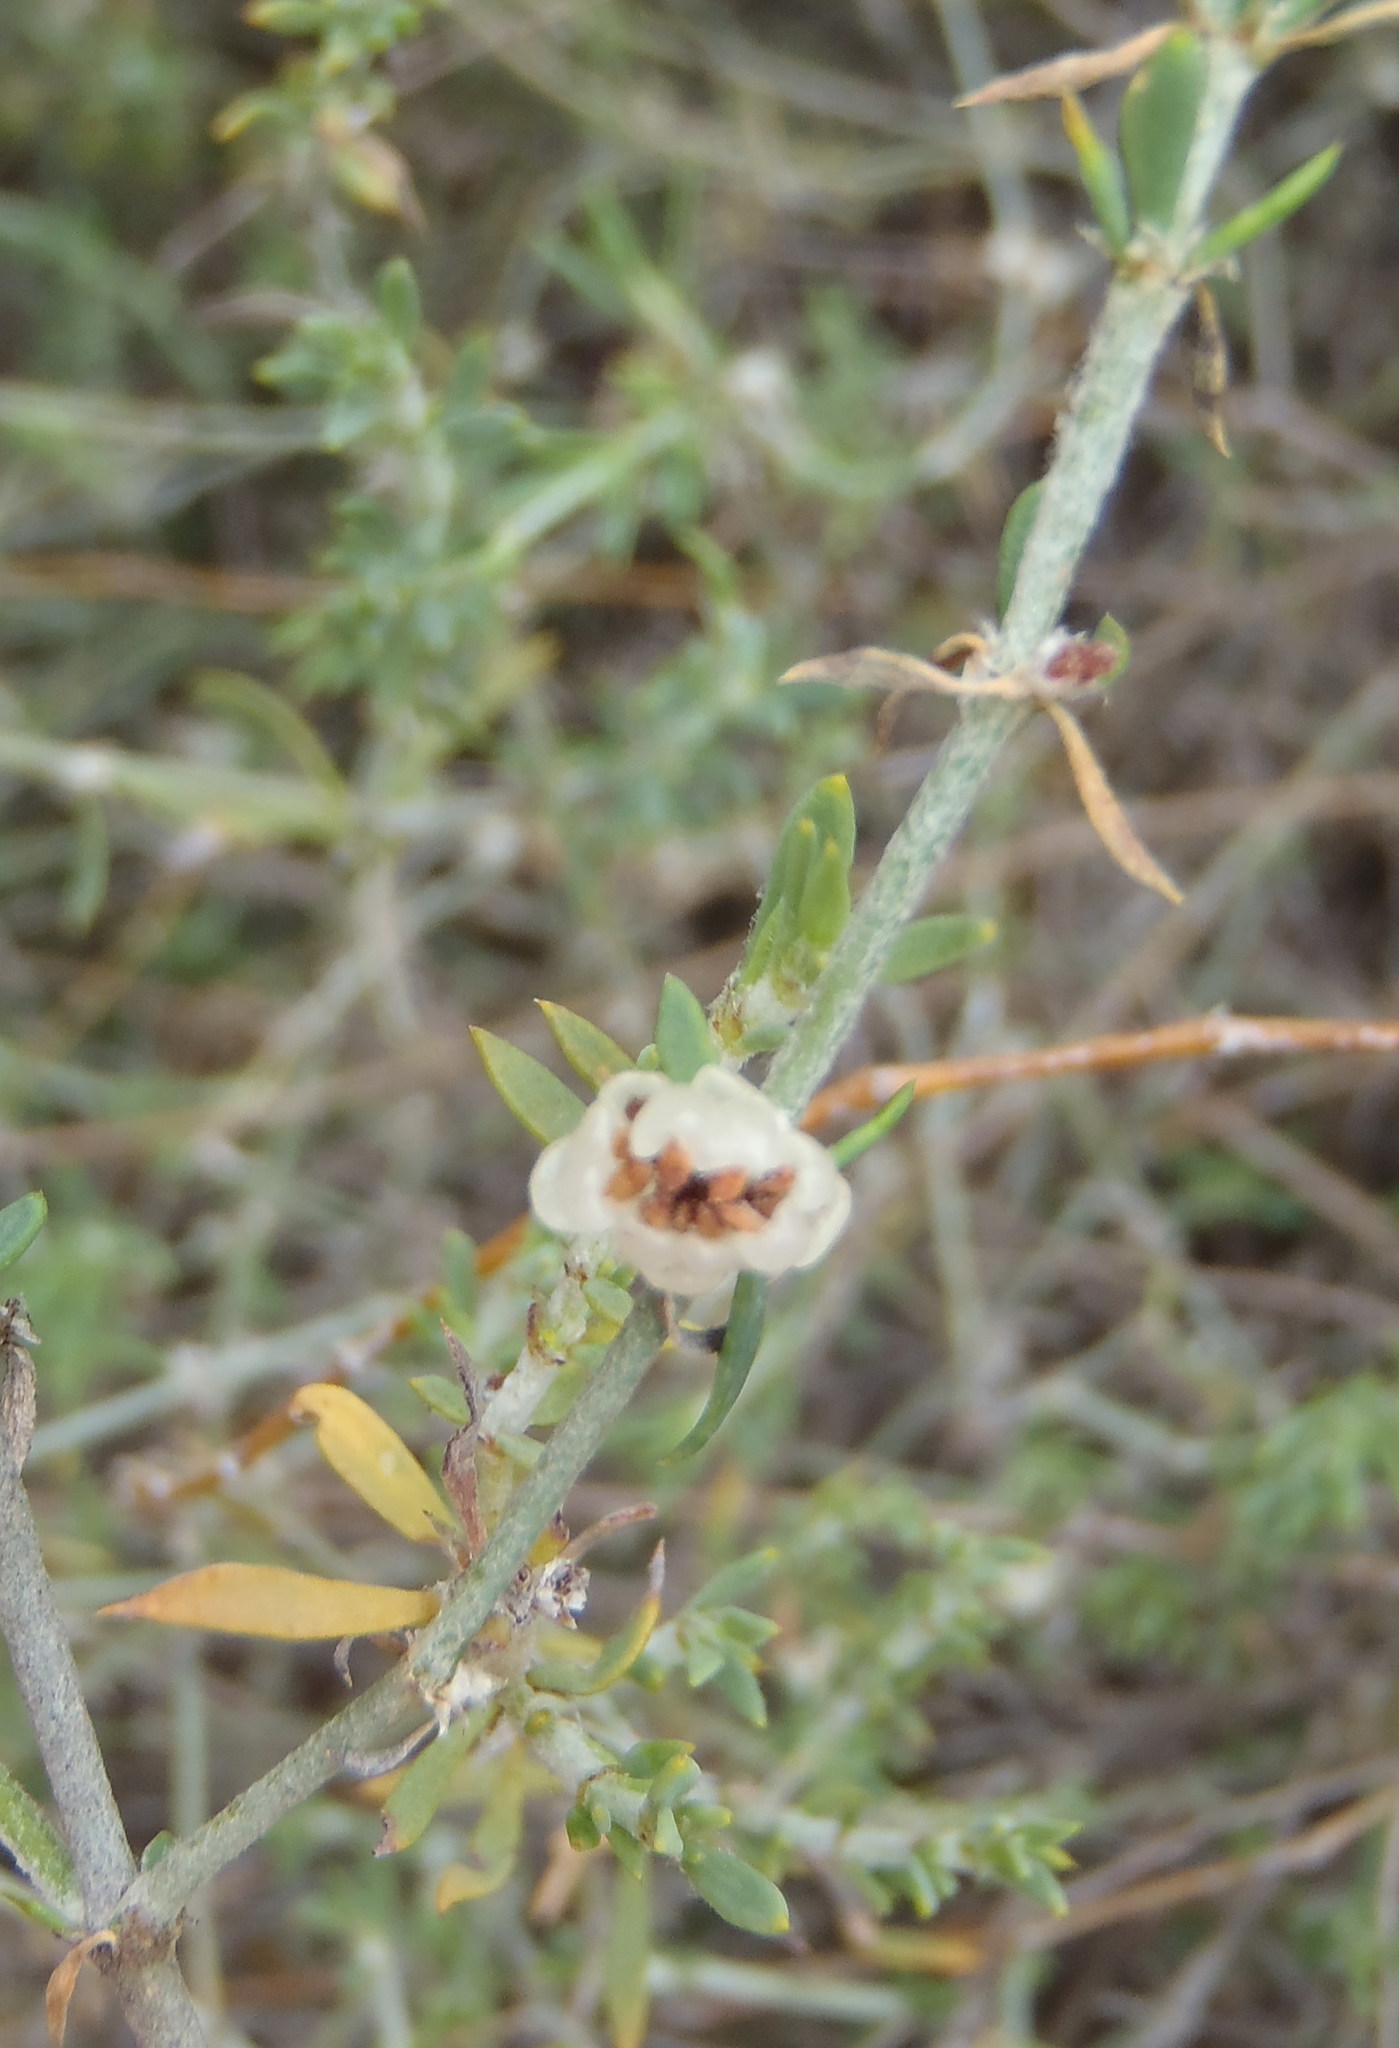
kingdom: Plantae
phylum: Tracheophyta
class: Magnoliopsida
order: Caryophyllales
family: Caryophyllaceae
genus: Pollichia
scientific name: Pollichia campestris
